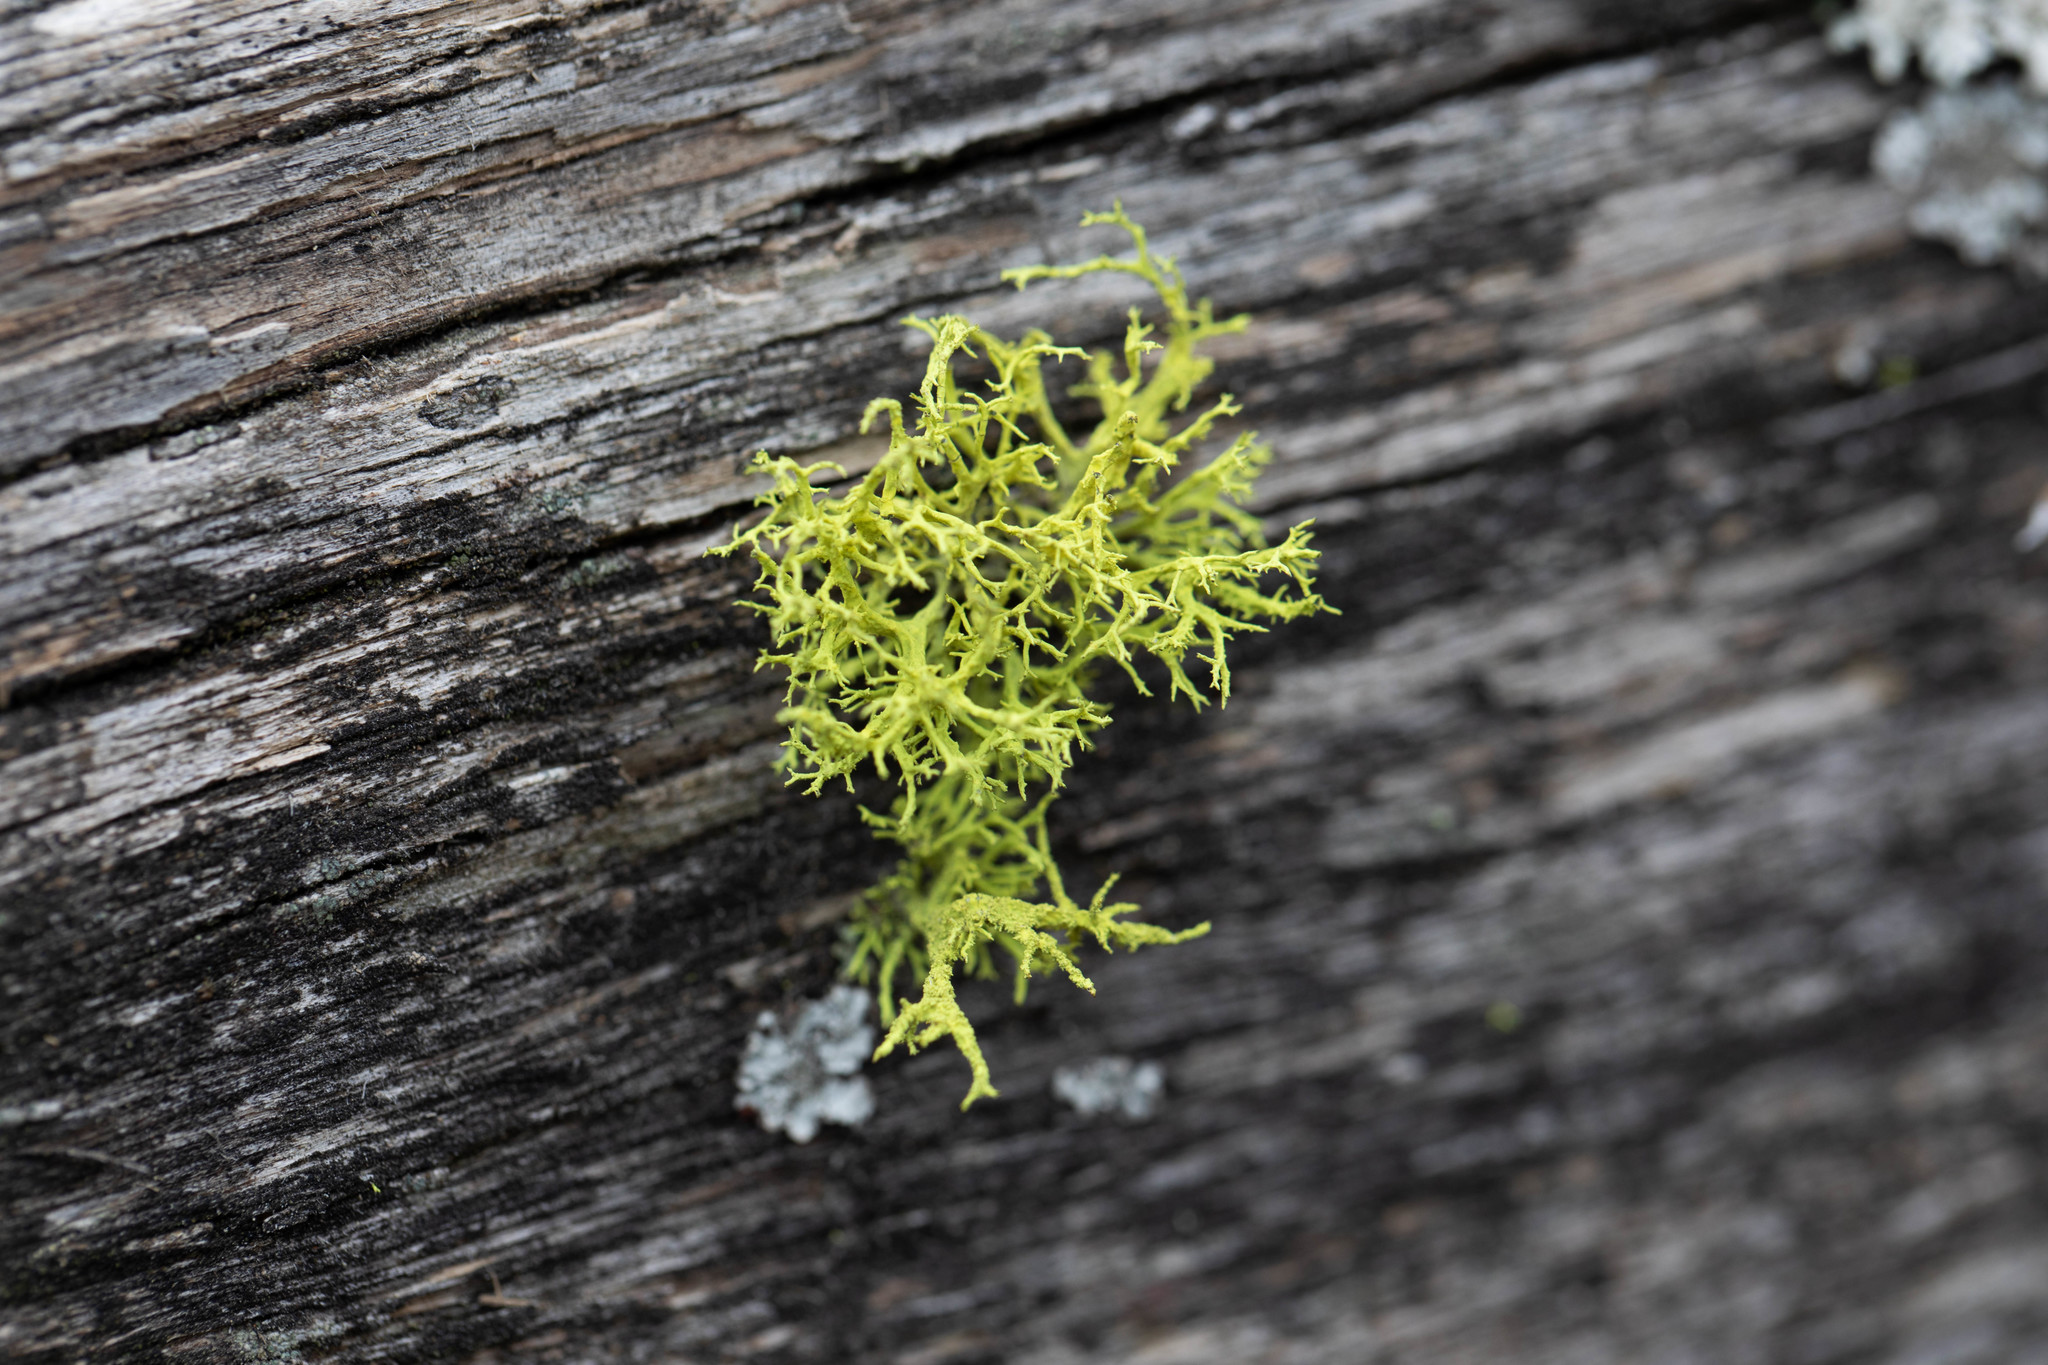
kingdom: Fungi
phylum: Ascomycota
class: Lecanoromycetes
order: Lecanorales
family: Parmeliaceae
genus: Letharia
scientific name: Letharia vulpina
